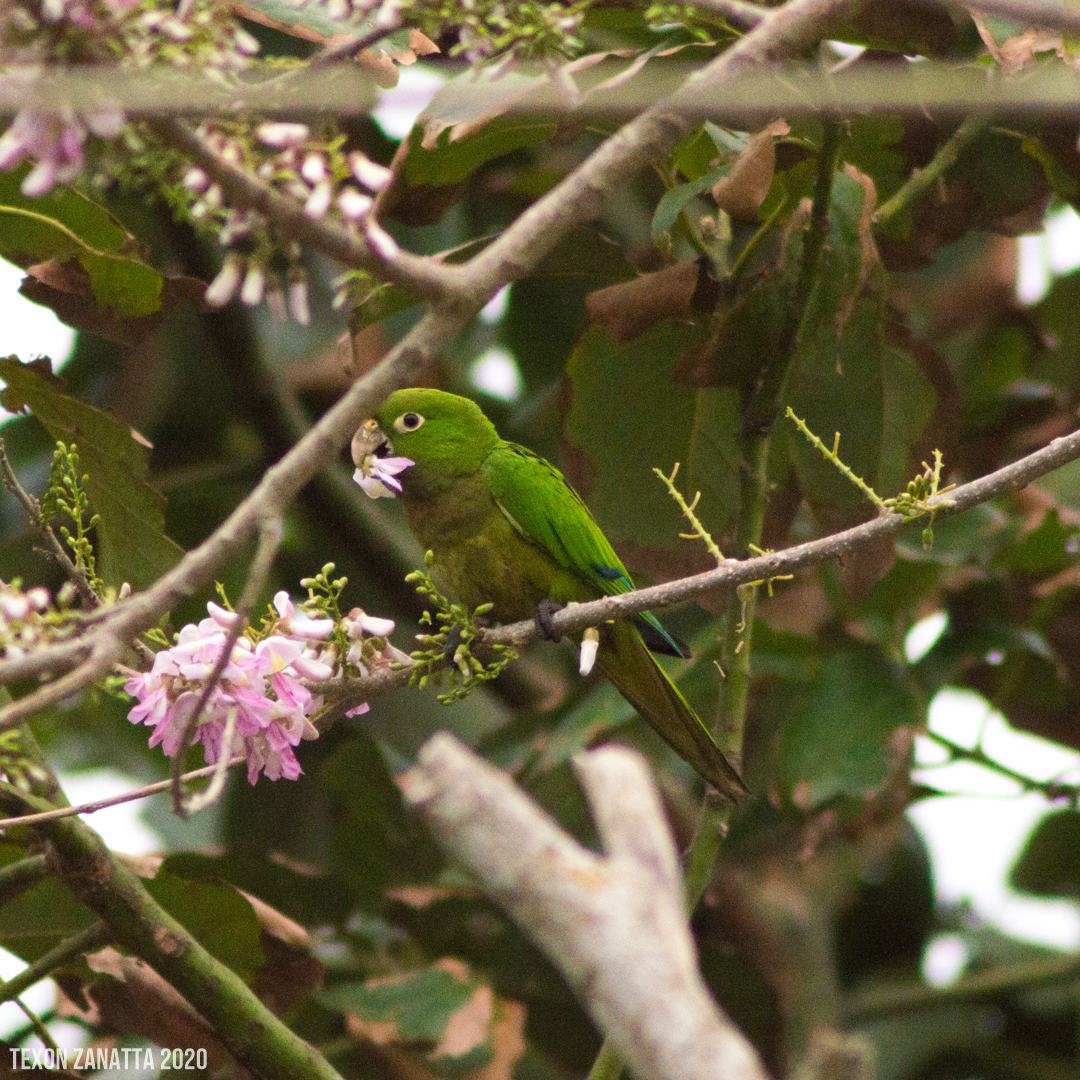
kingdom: Animalia
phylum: Chordata
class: Aves
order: Psittaciformes
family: Psittacidae
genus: Aratinga
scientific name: Aratinga nana
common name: Olive-throated parakeet
